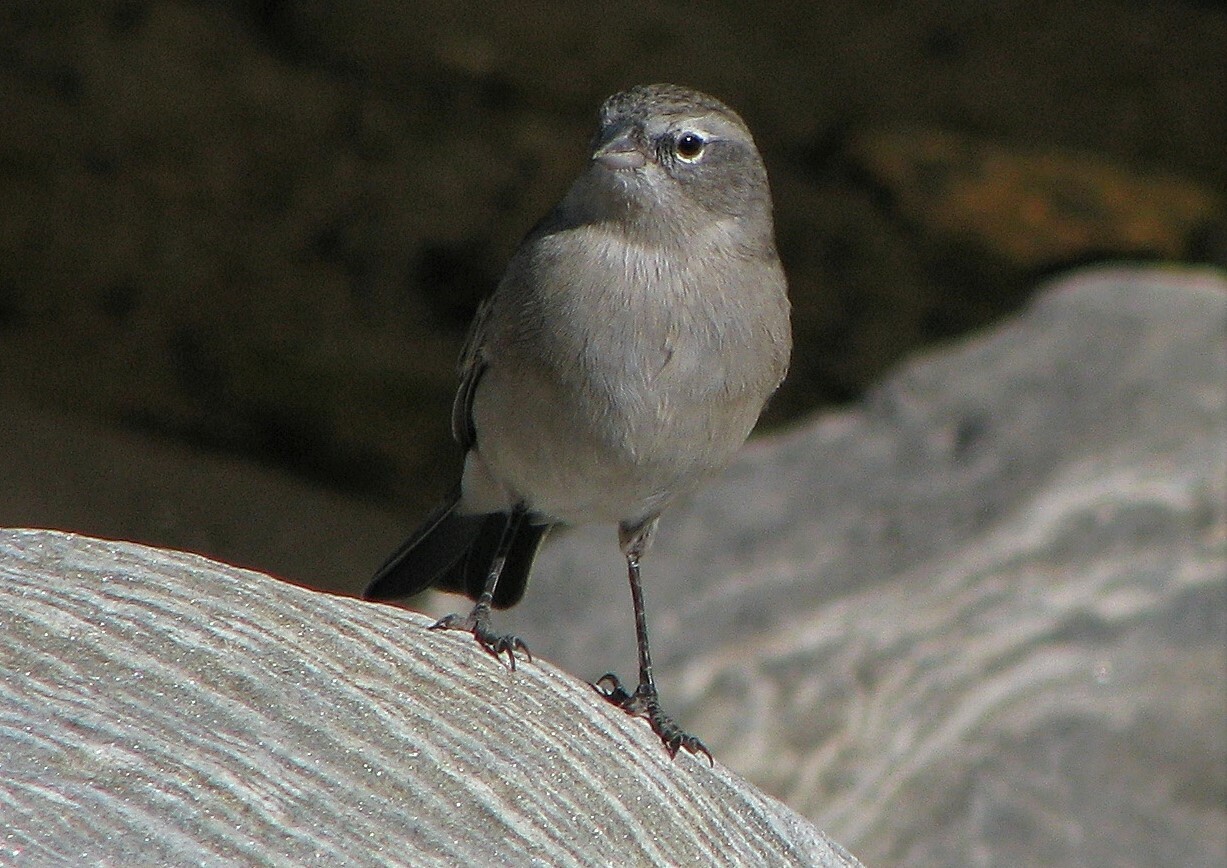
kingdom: Animalia
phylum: Chordata
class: Aves
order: Passeriformes
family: Thraupidae
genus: Geospizopsis
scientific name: Geospizopsis plebejus
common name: Ash-breasted sierra-finch
